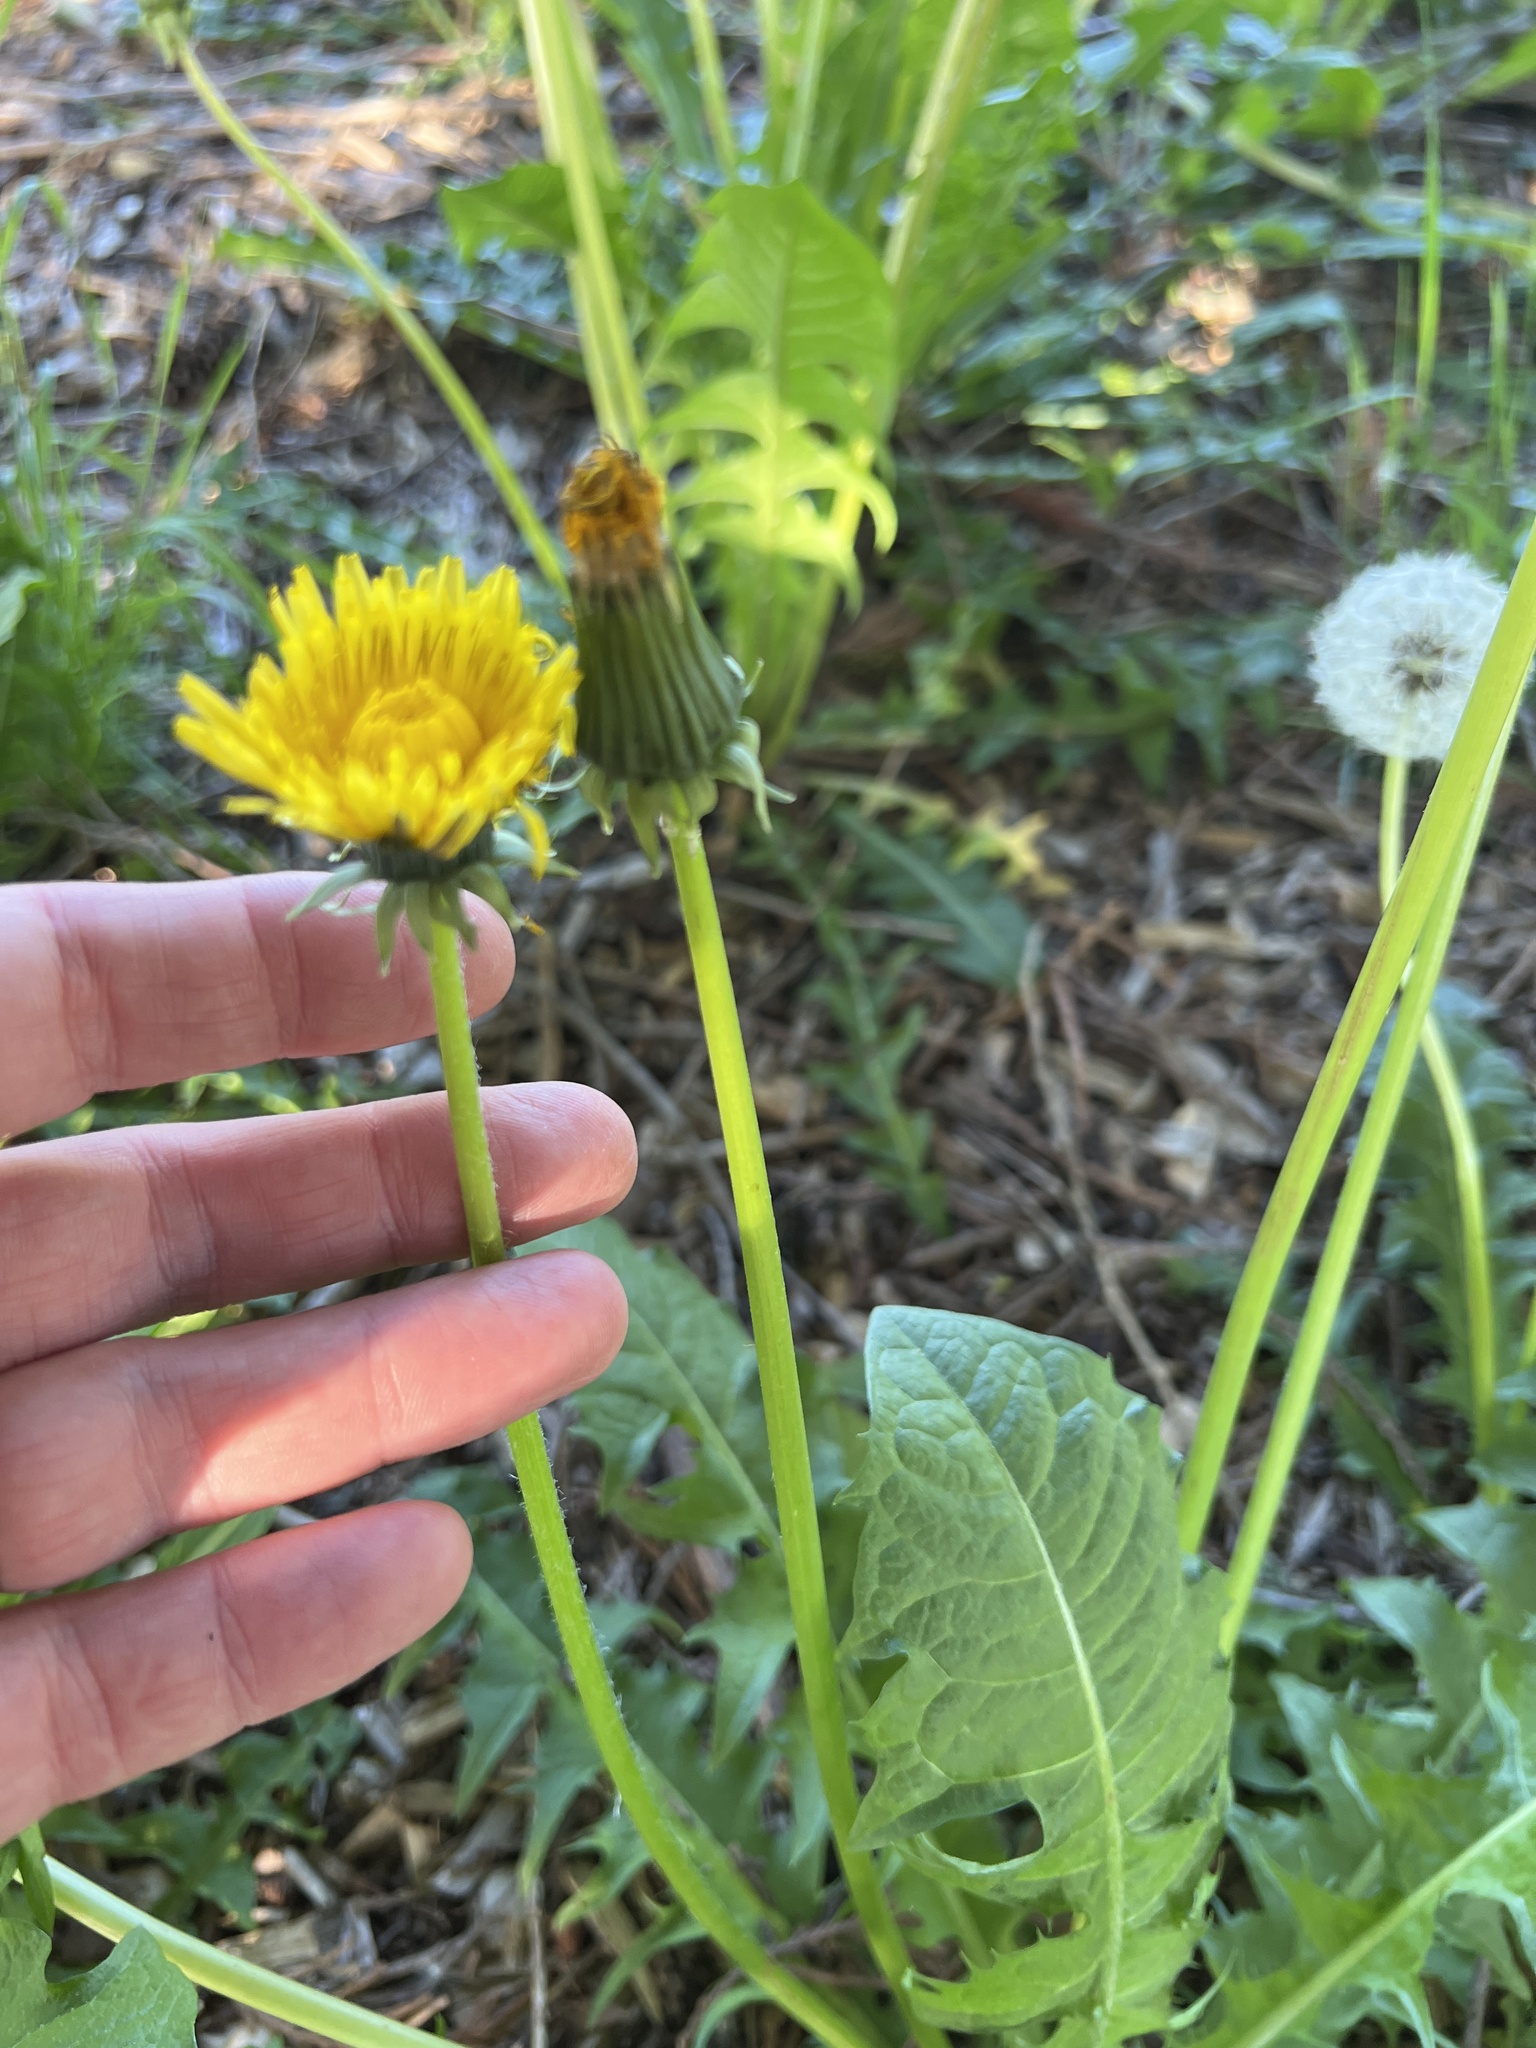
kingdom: Plantae
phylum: Tracheophyta
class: Magnoliopsida
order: Asterales
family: Asteraceae
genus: Taraxacum
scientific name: Taraxacum officinale
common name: Common dandelion
